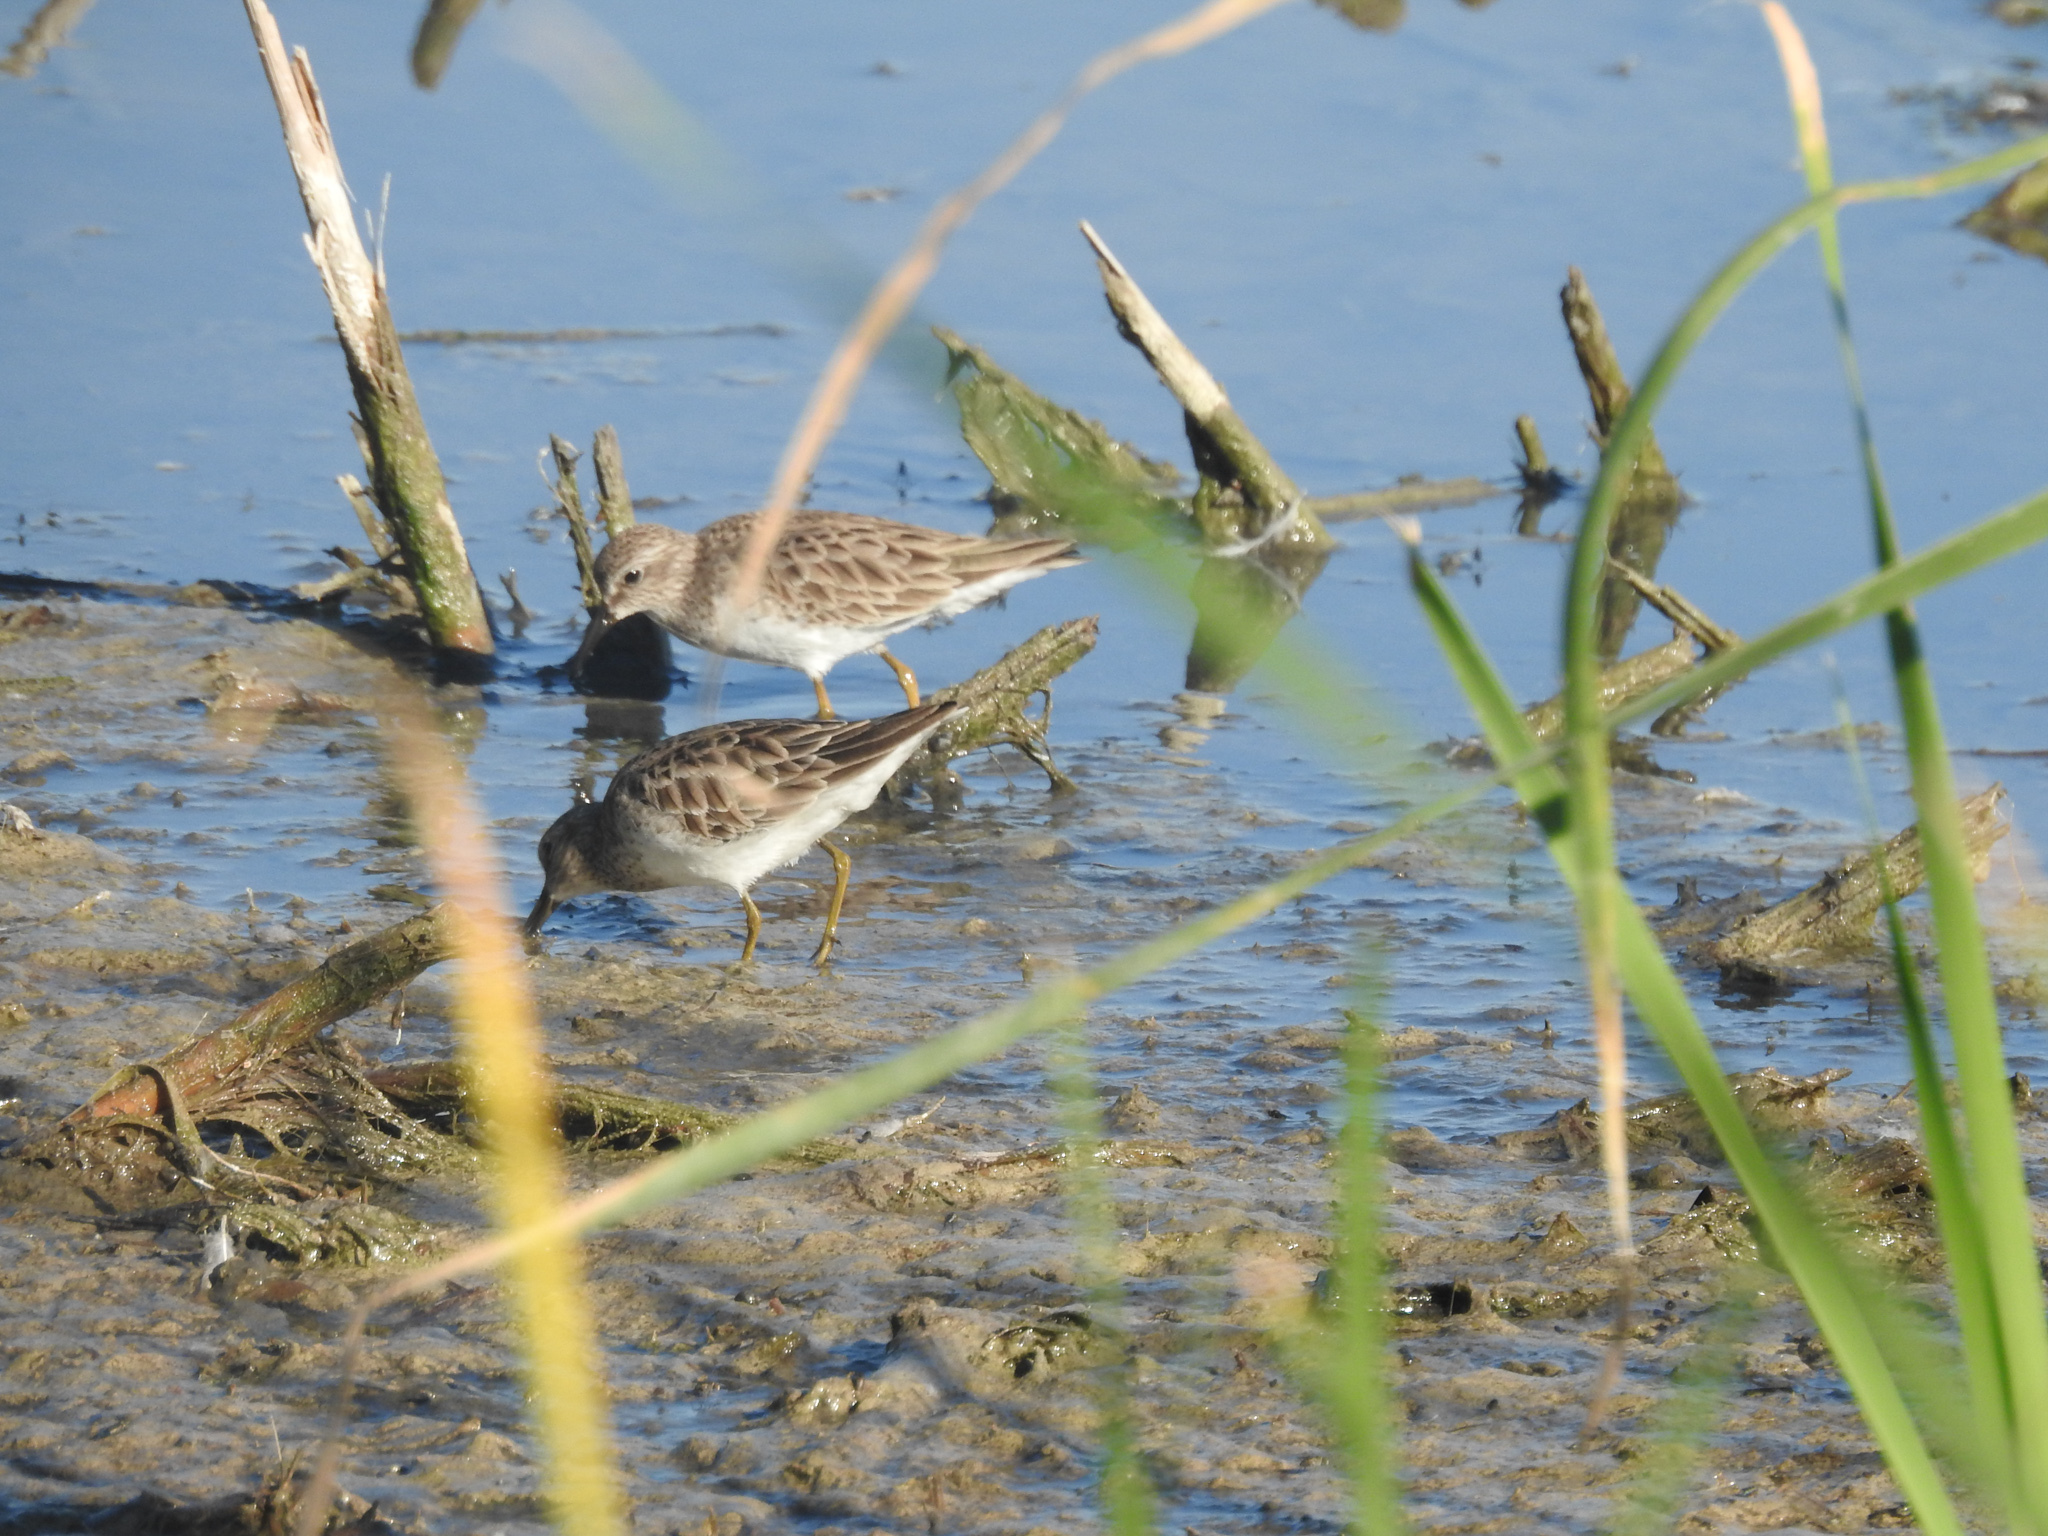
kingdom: Animalia
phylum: Chordata
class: Aves
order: Charadriiformes
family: Scolopacidae
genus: Calidris
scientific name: Calidris minutilla
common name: Least sandpiper
